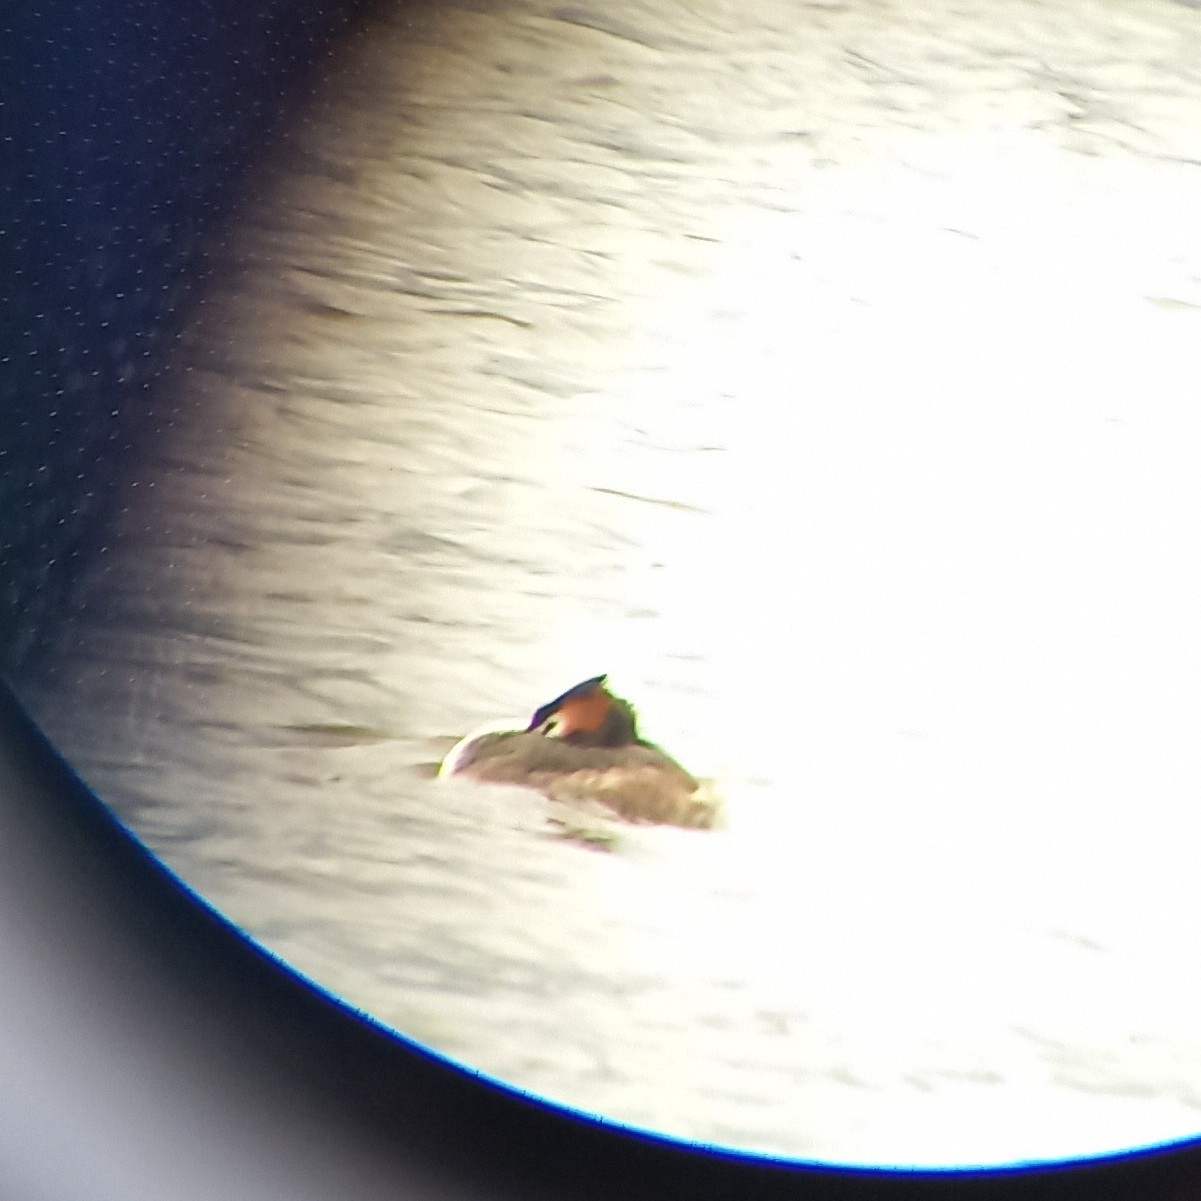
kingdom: Animalia
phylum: Chordata
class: Aves
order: Podicipediformes
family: Podicipedidae
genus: Podiceps
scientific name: Podiceps cristatus
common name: Great crested grebe
